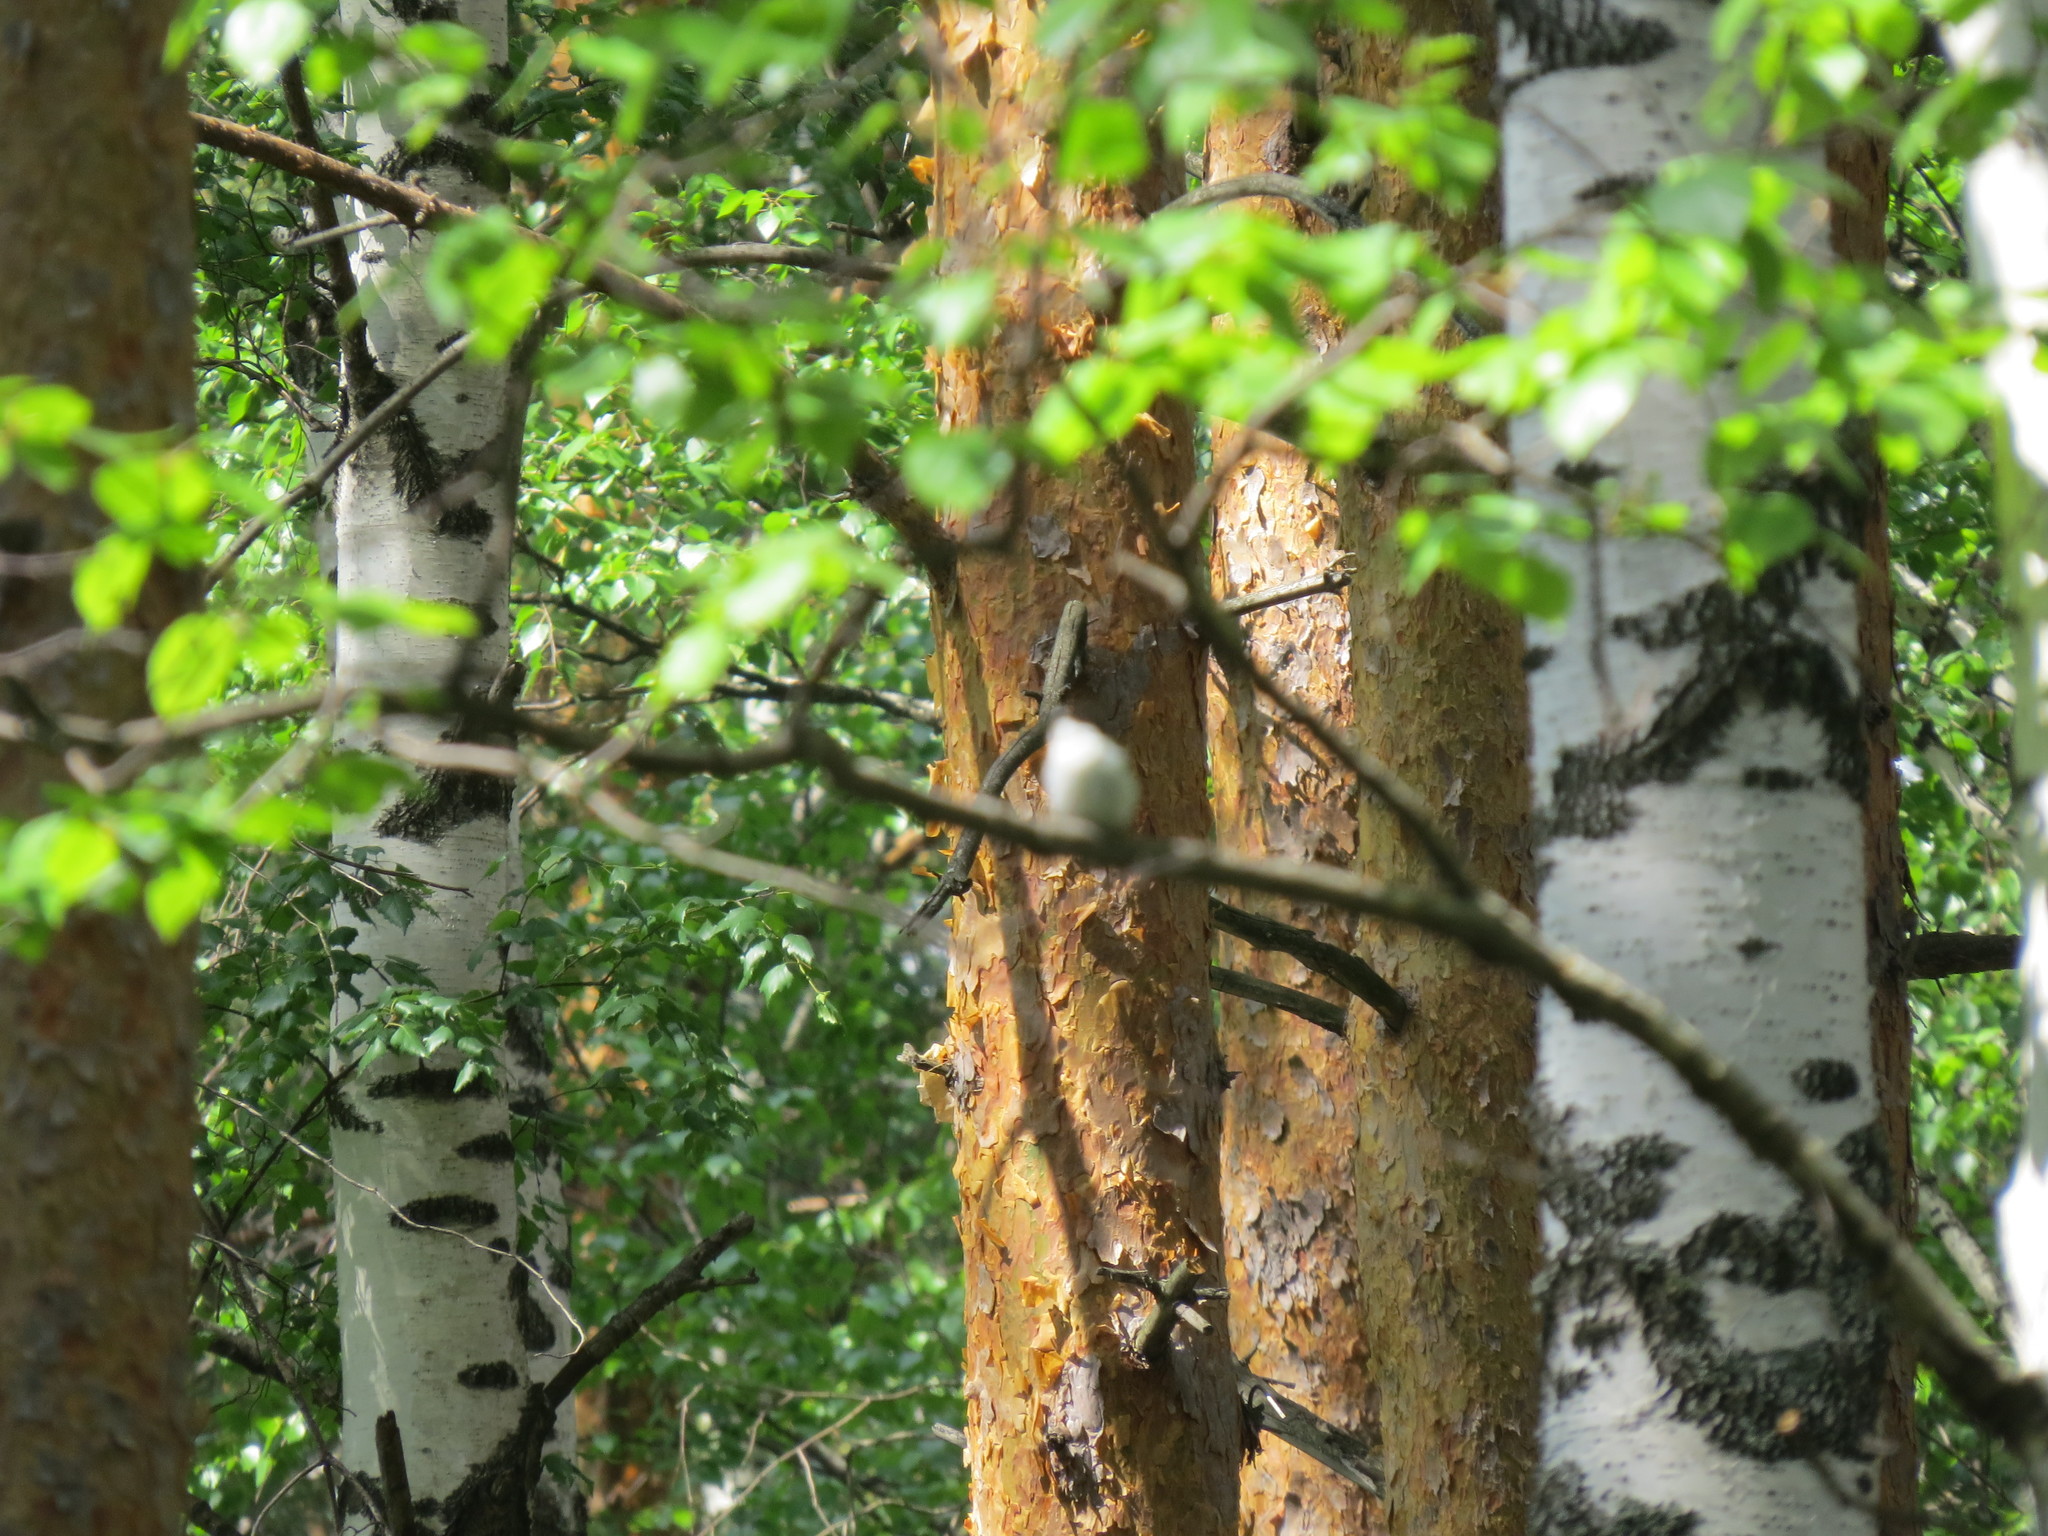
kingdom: Animalia
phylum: Chordata
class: Aves
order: Passeriformes
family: Muscicapidae
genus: Ficedula
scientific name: Ficedula hypoleuca
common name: European pied flycatcher
